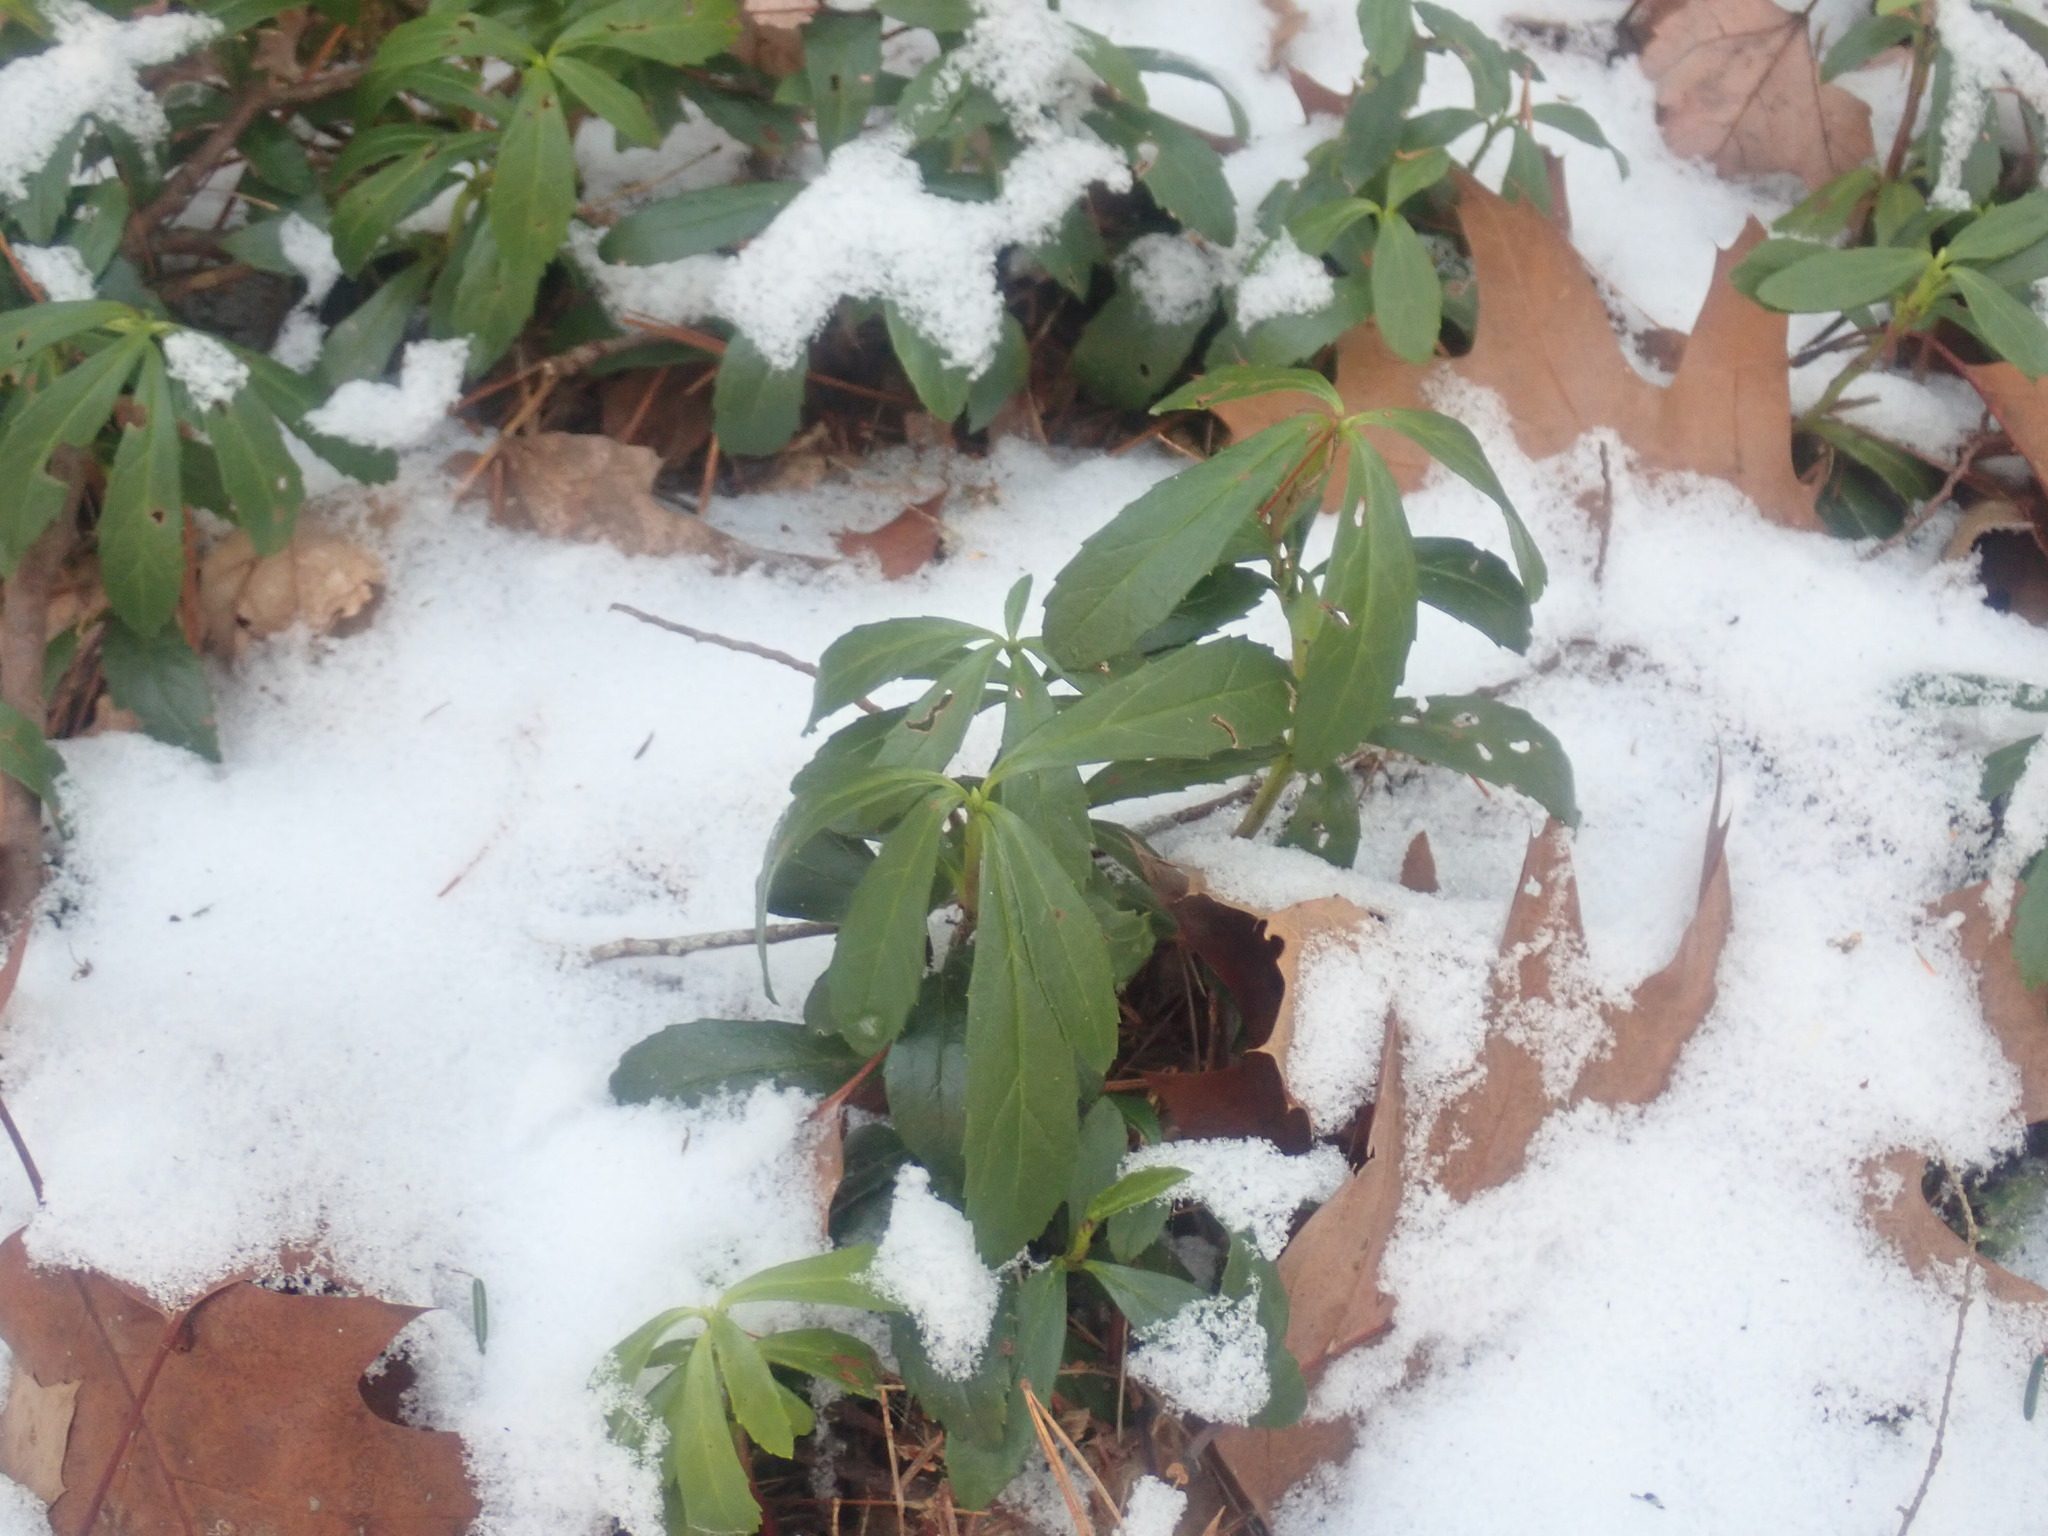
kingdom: Plantae
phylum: Tracheophyta
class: Magnoliopsida
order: Ericales
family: Ericaceae
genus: Chimaphila
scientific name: Chimaphila umbellata
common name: Pipsissewa
